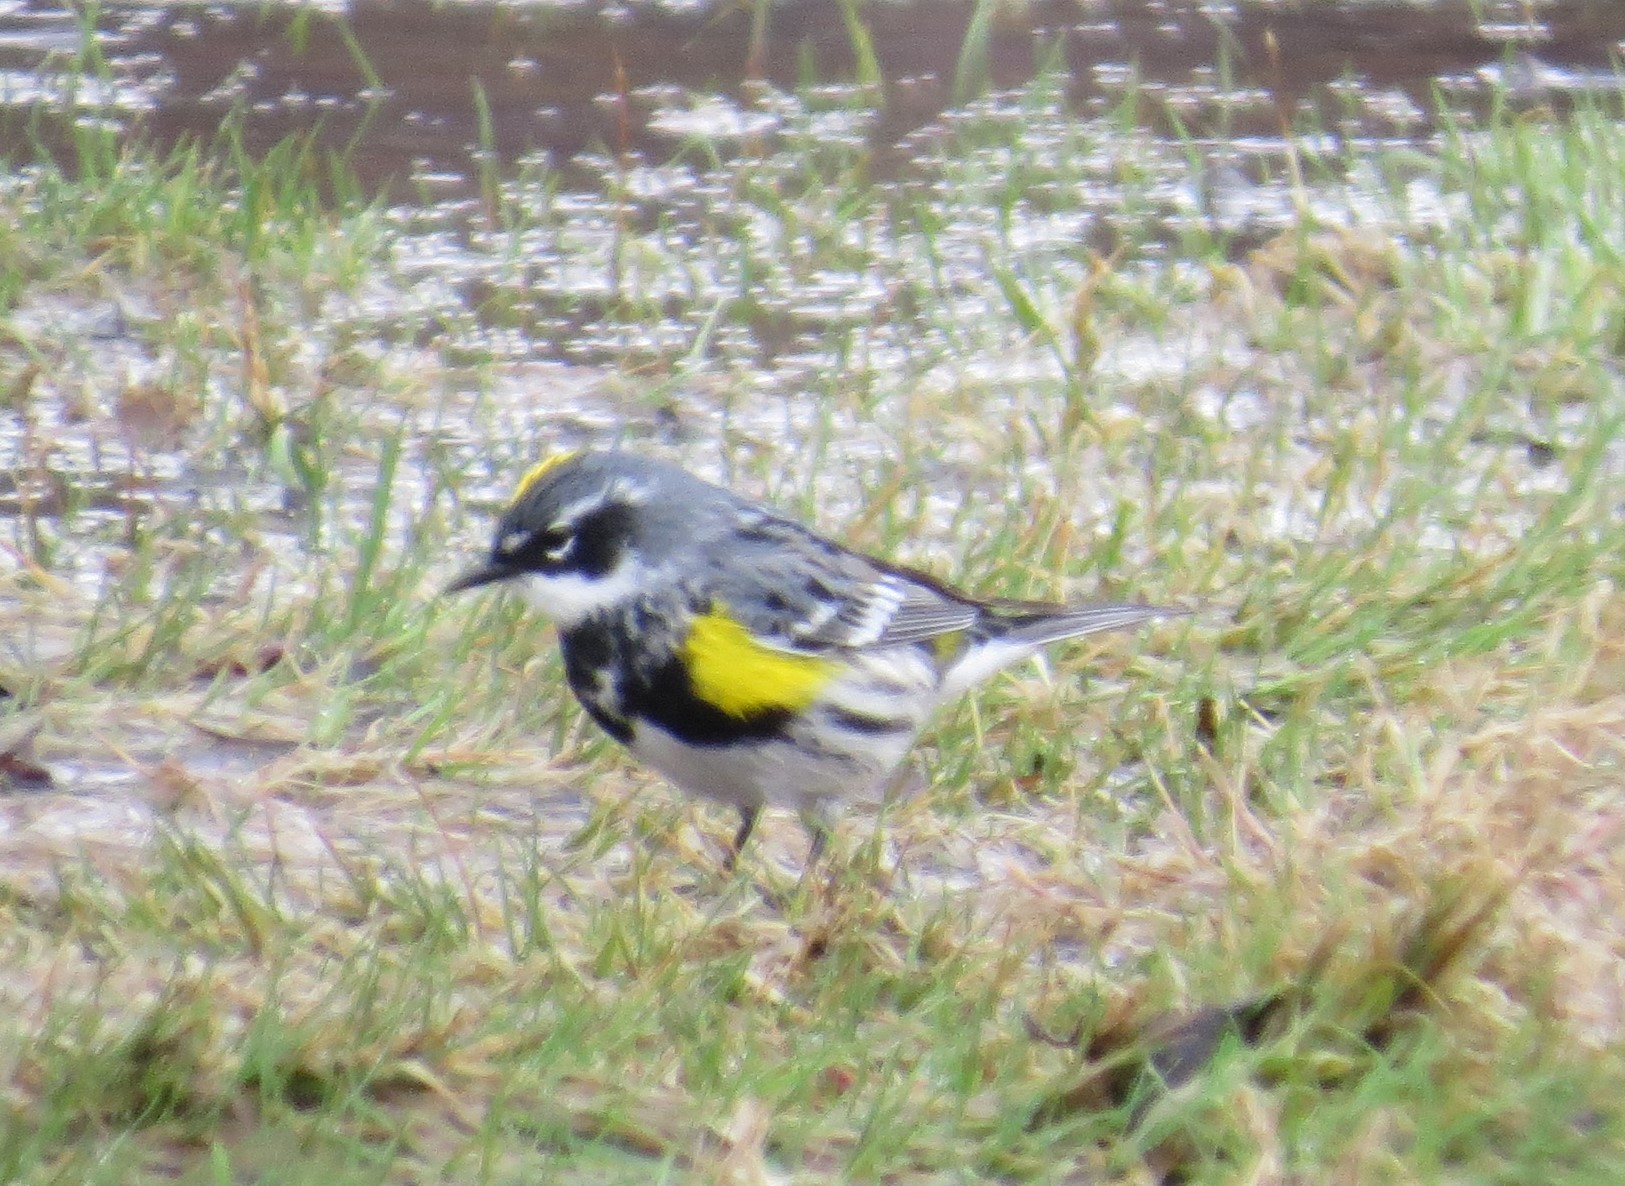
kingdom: Animalia
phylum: Chordata
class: Aves
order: Passeriformes
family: Parulidae
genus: Setophaga
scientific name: Setophaga coronata
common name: Myrtle warbler
